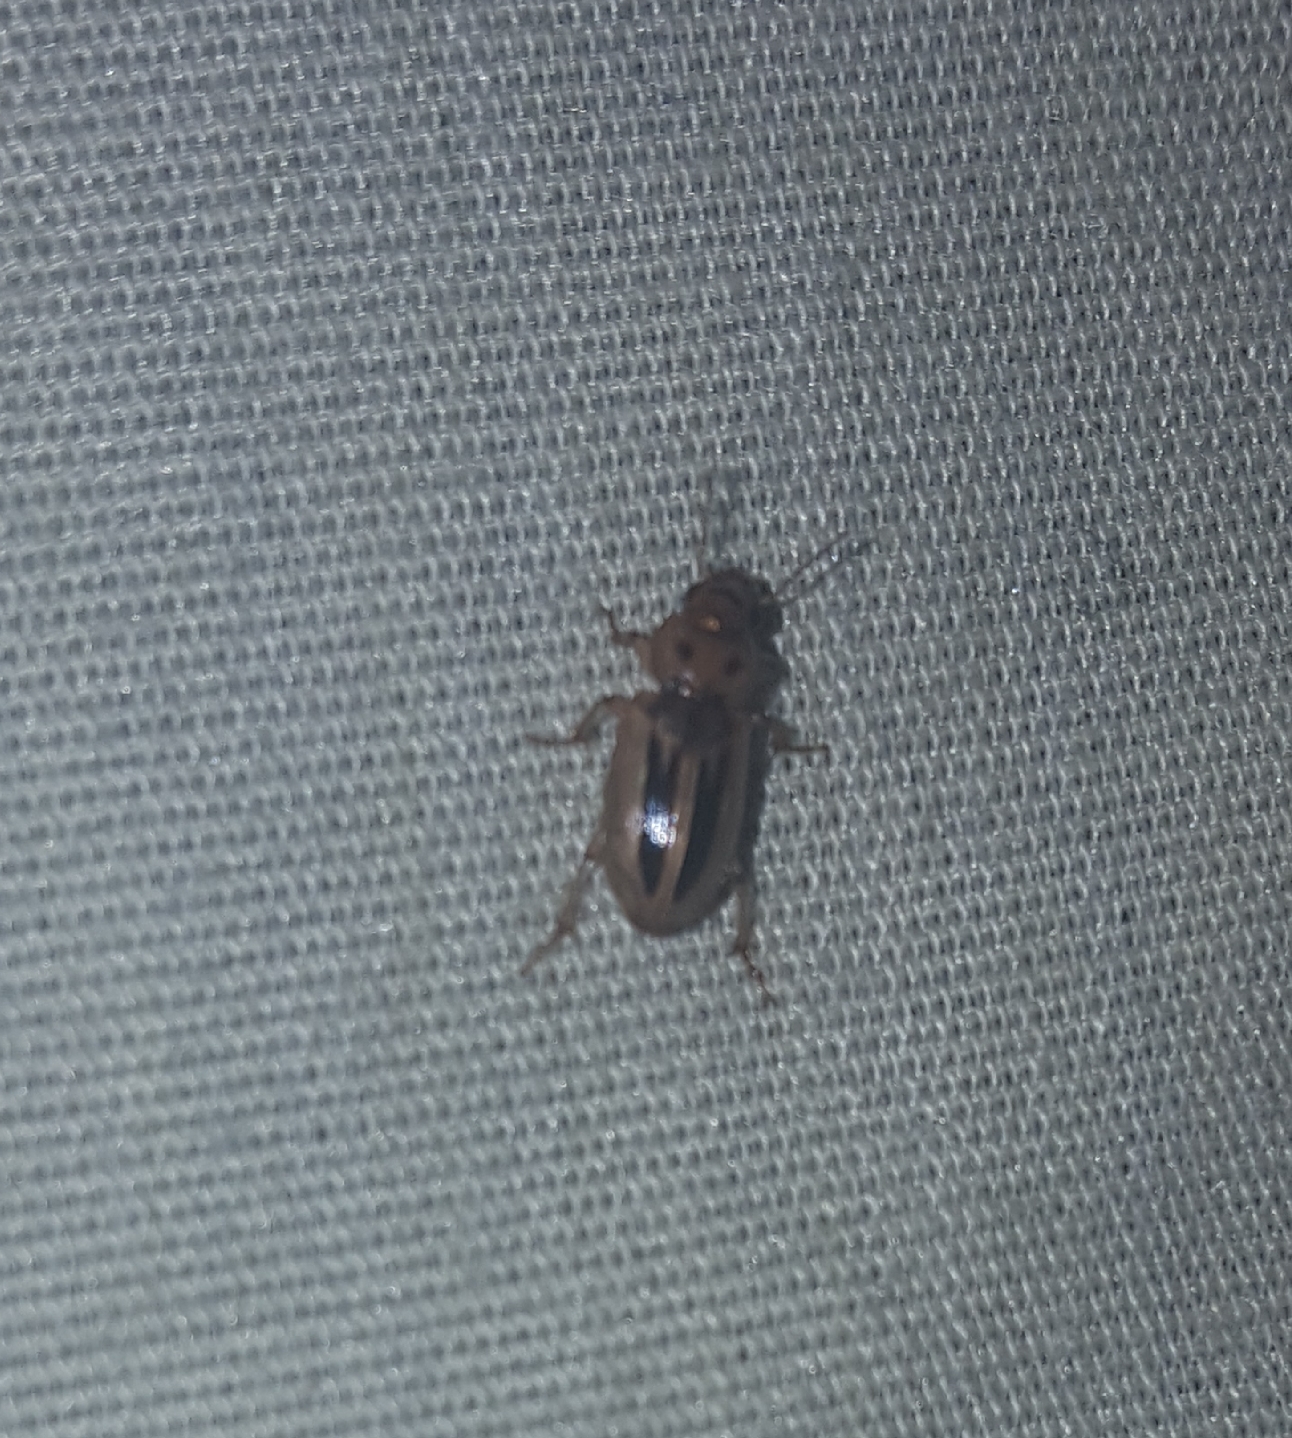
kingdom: Animalia
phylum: Arthropoda
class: Insecta
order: Coleoptera
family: Carabidae
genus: Stenolophus
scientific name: Stenolophus lineola
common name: Lined stenolophus
